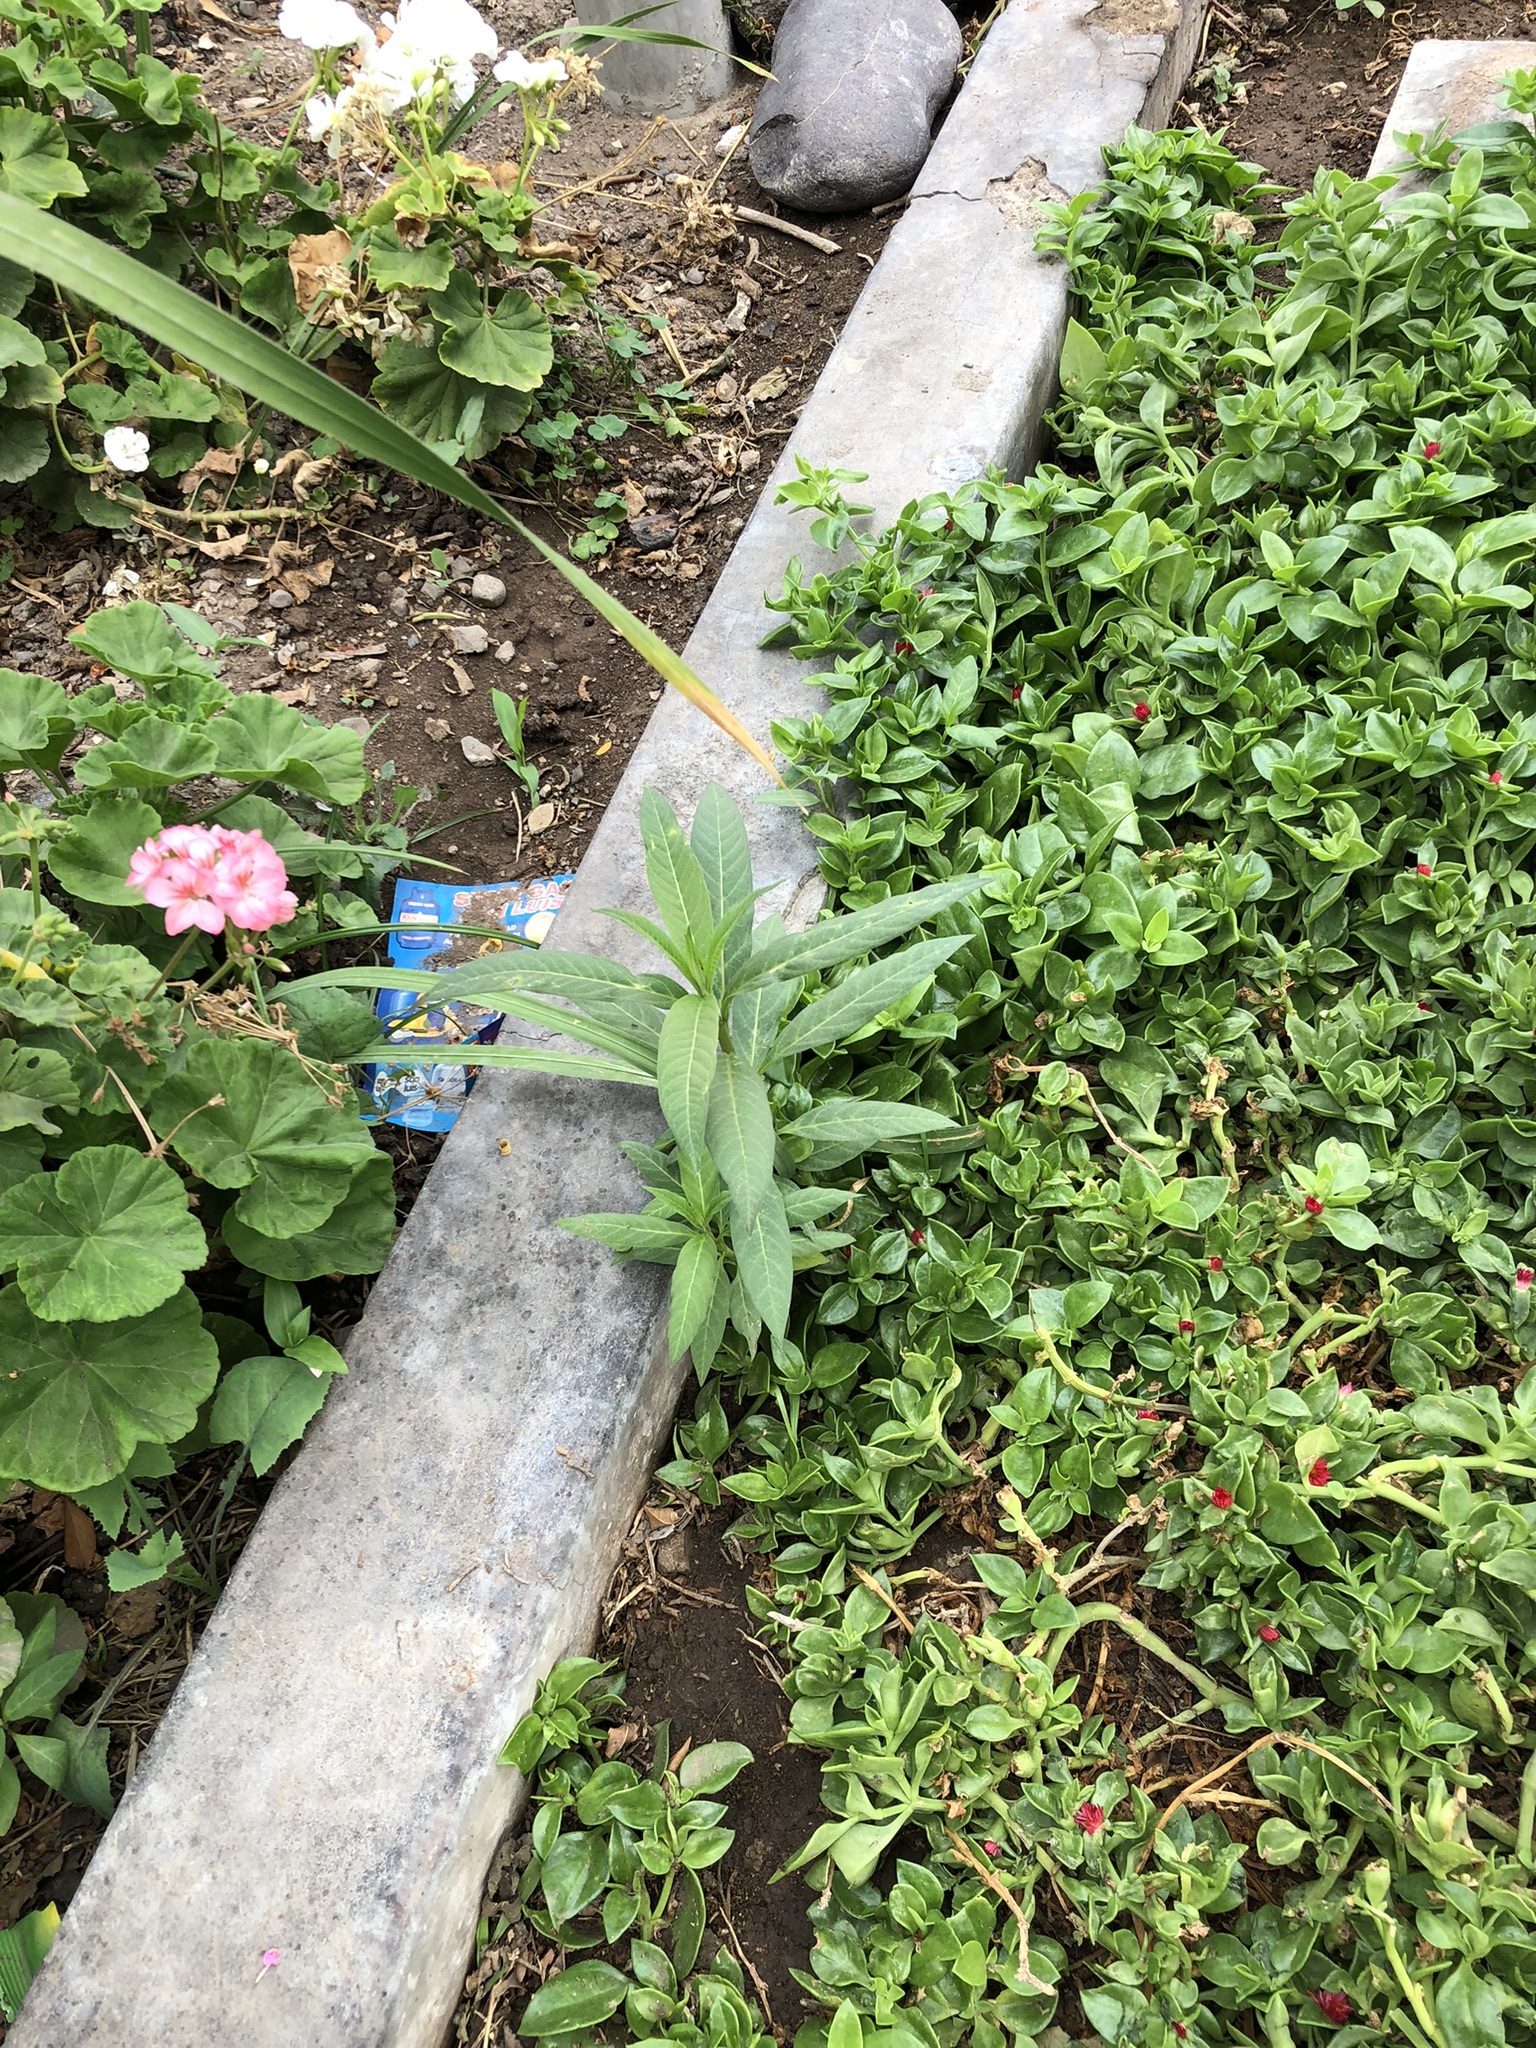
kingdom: Plantae
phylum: Tracheophyta
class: Magnoliopsida
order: Gentianales
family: Apocynaceae
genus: Asclepias
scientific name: Asclepias curassavica
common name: Bloodflower
